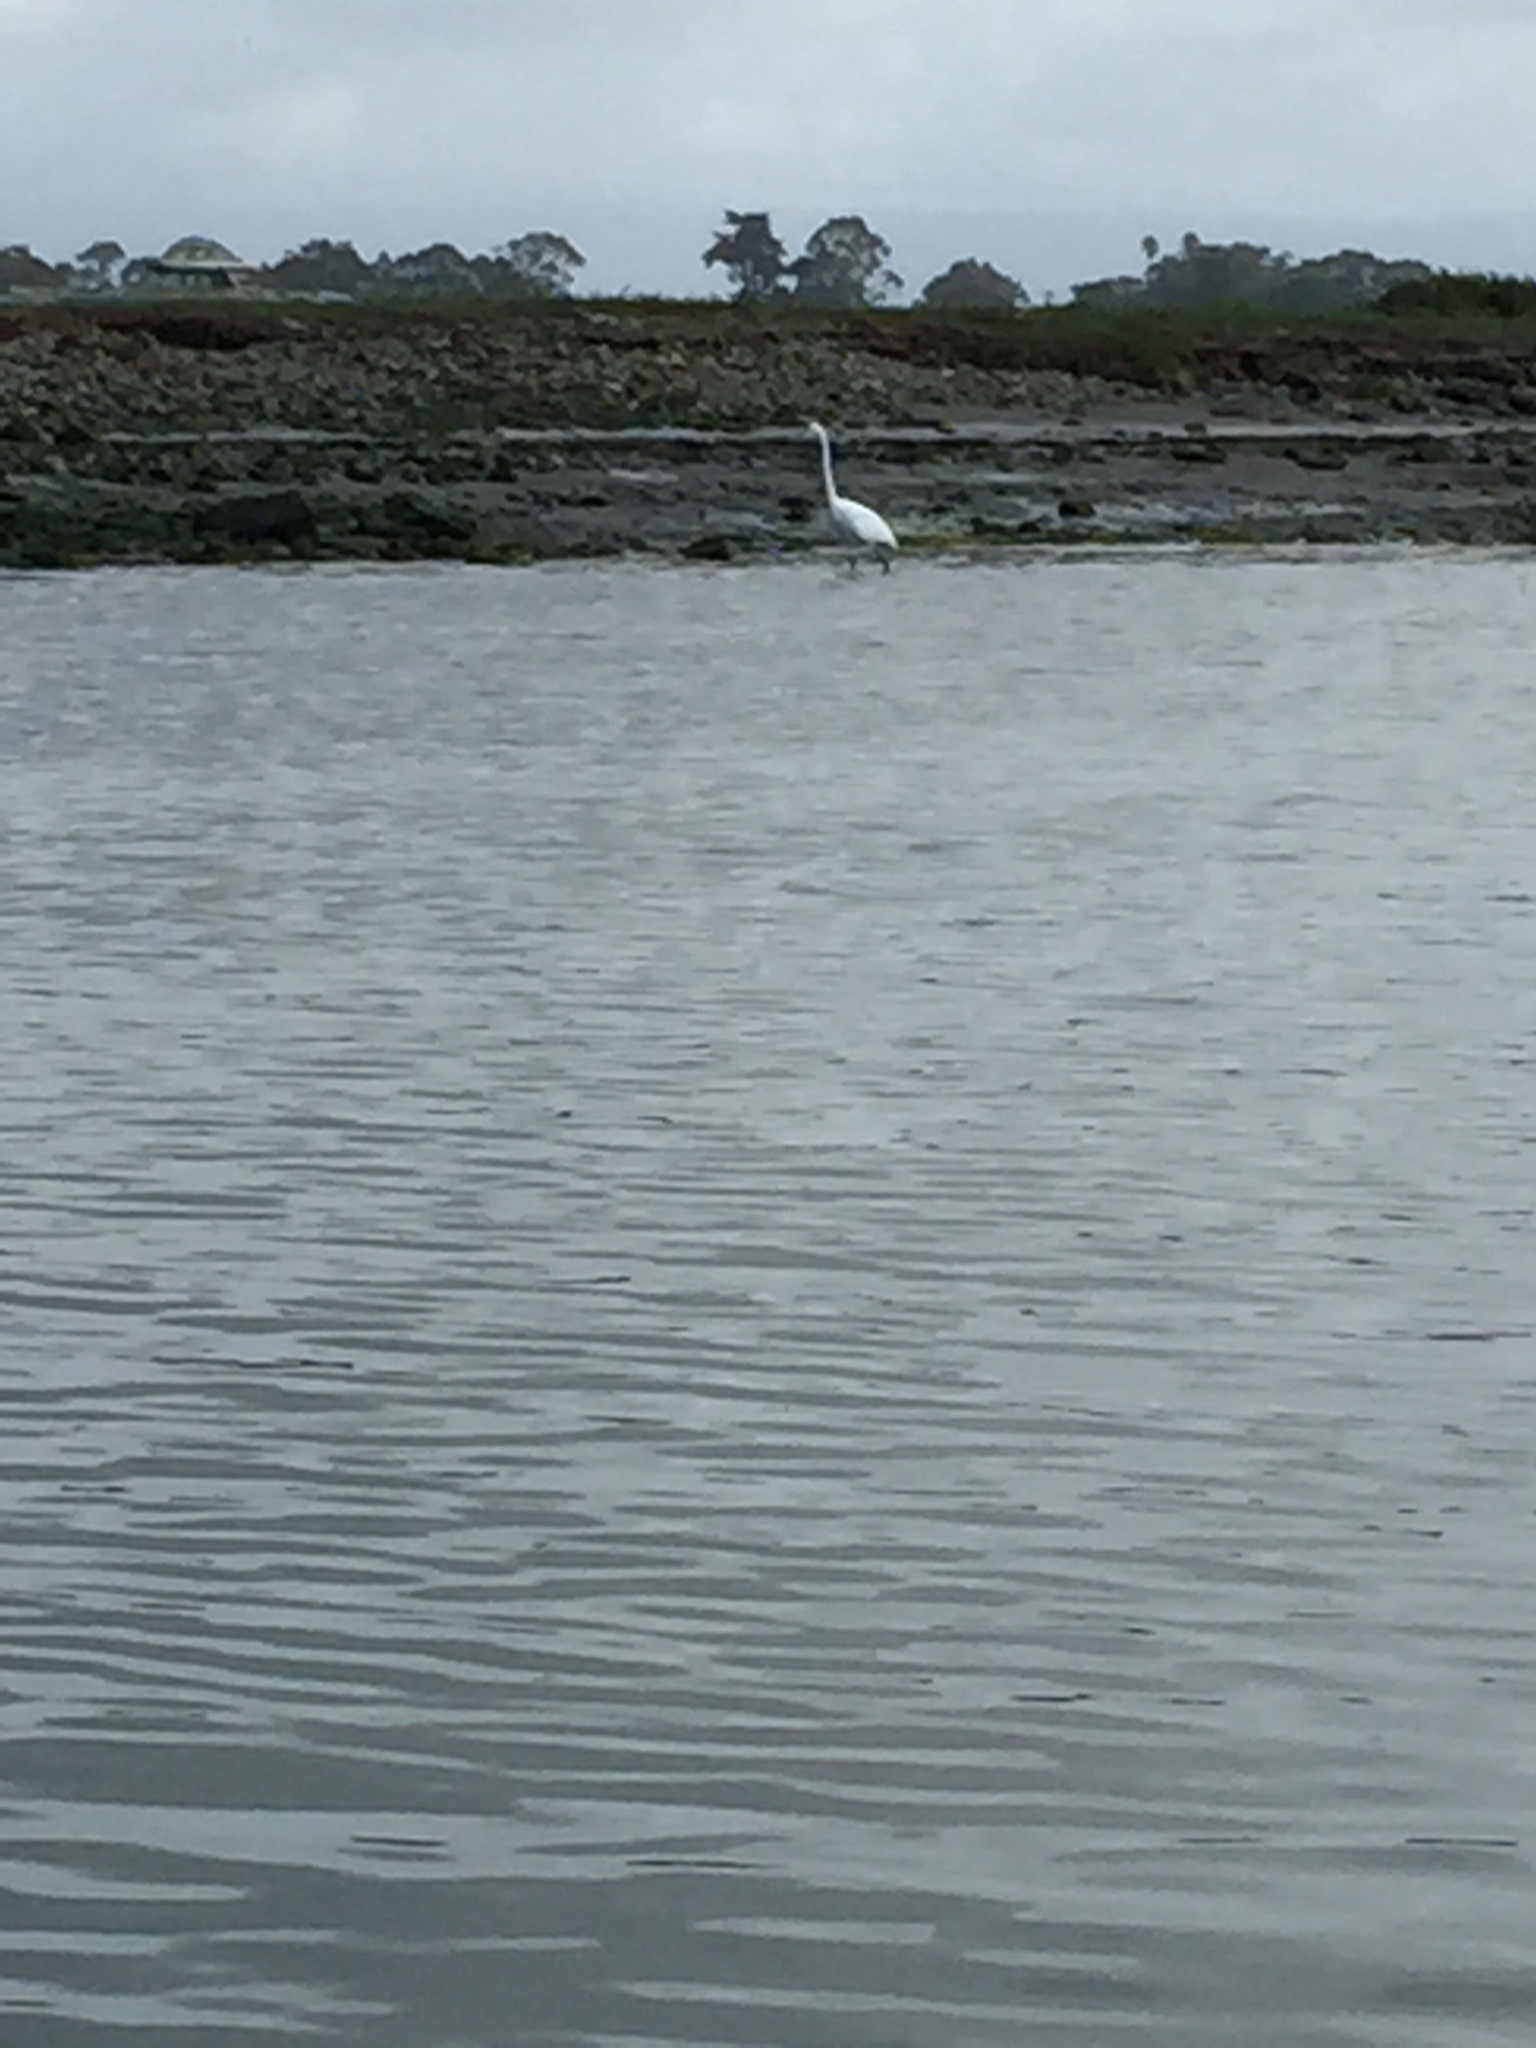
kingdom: Animalia
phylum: Chordata
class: Aves
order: Pelecaniformes
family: Ardeidae
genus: Ardea
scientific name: Ardea alba
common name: Great egret
